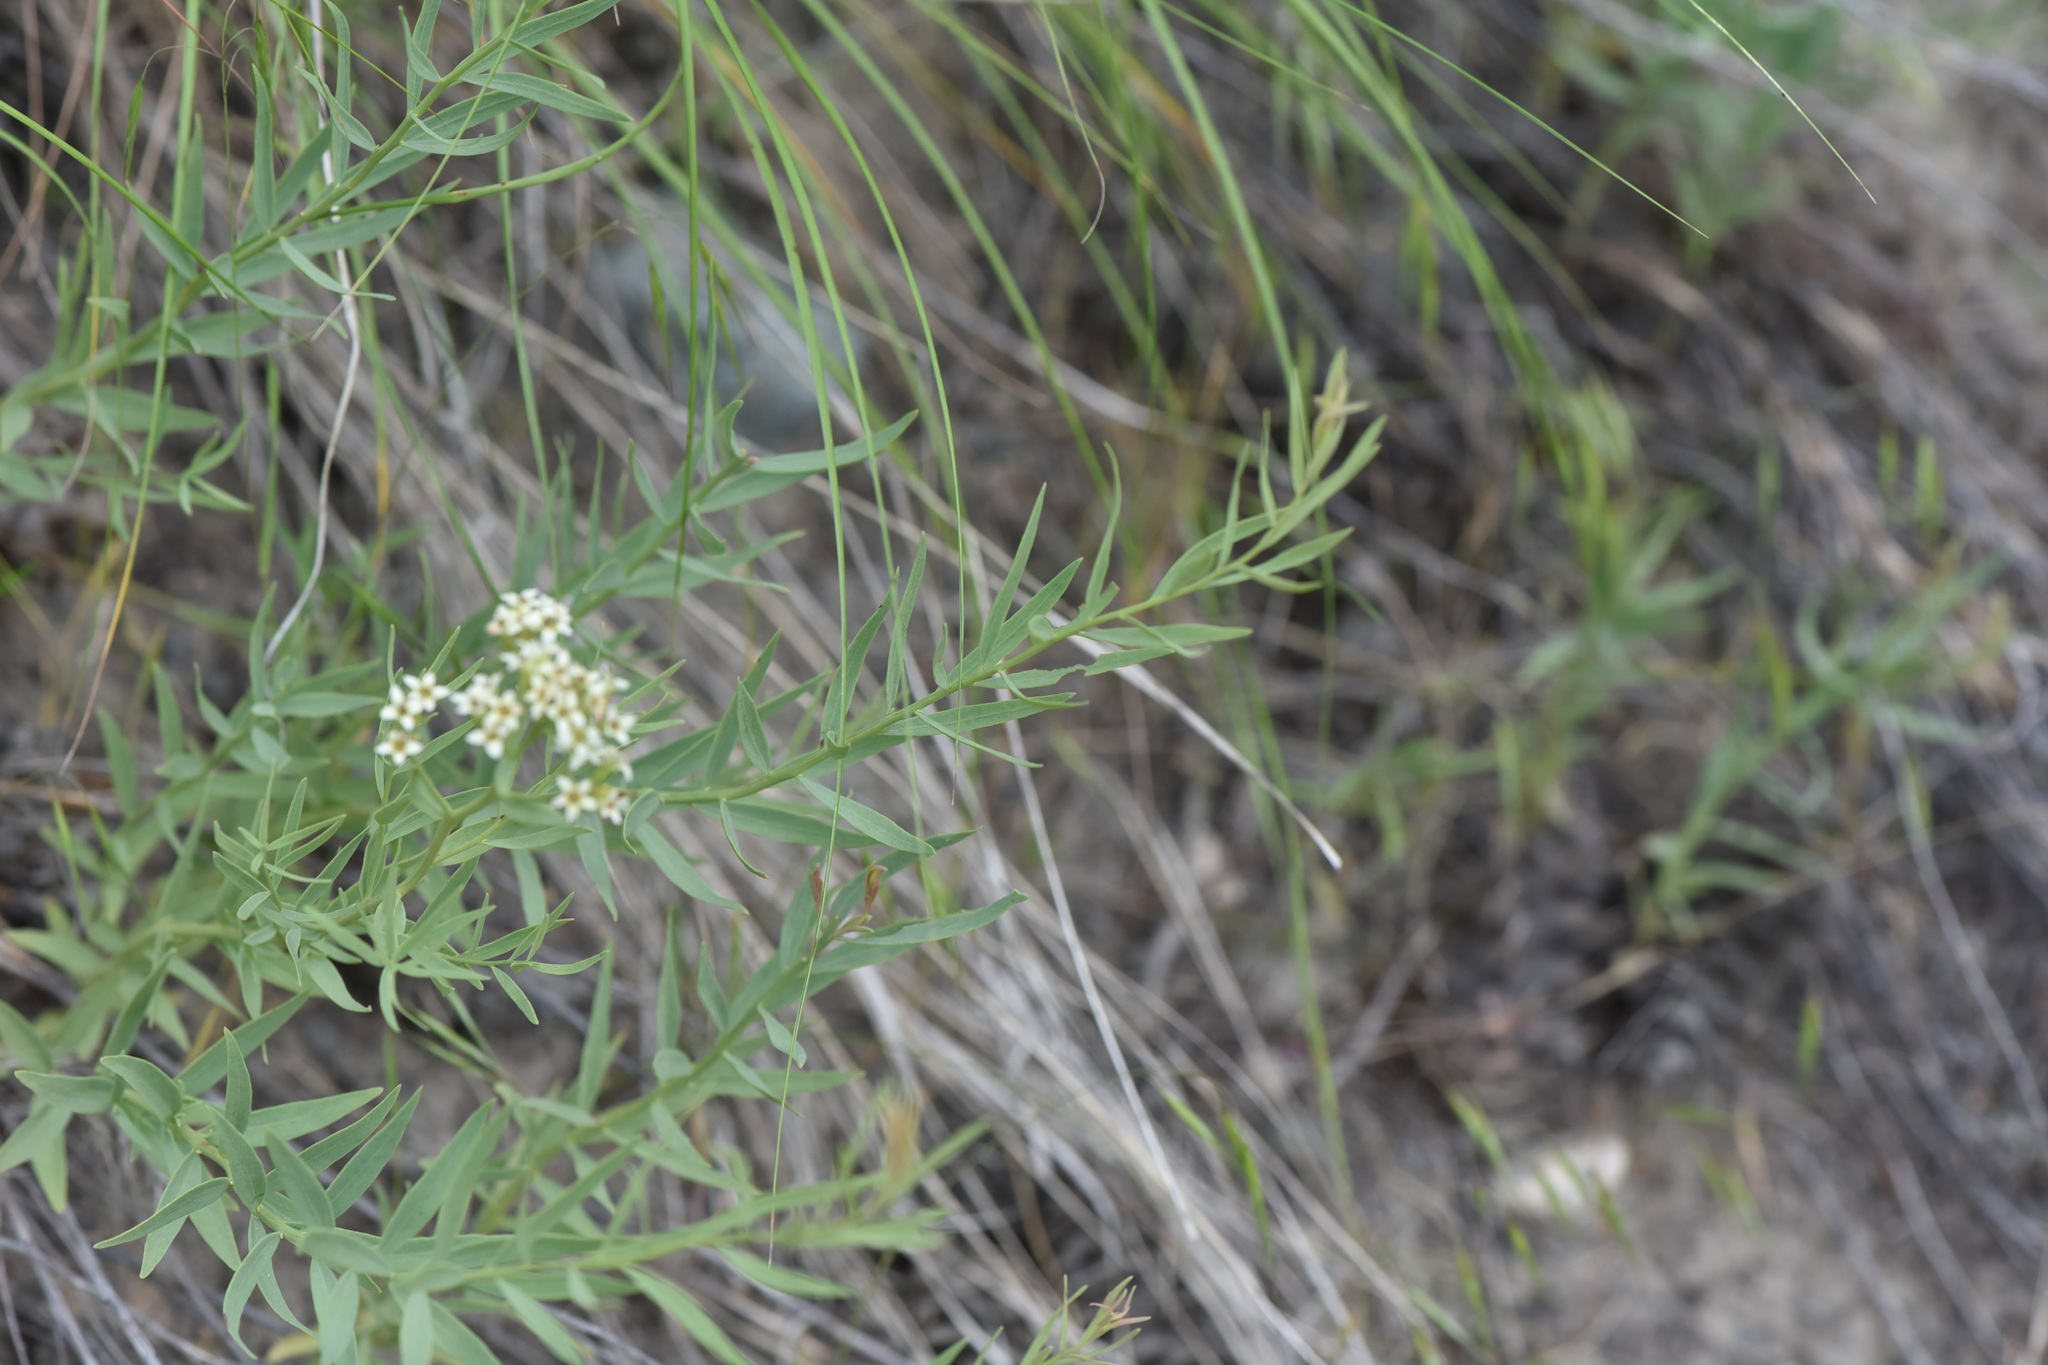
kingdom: Plantae
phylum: Tracheophyta
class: Magnoliopsida
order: Santalales
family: Comandraceae
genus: Comandra
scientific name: Comandra umbellata
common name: Bastard toadflax
